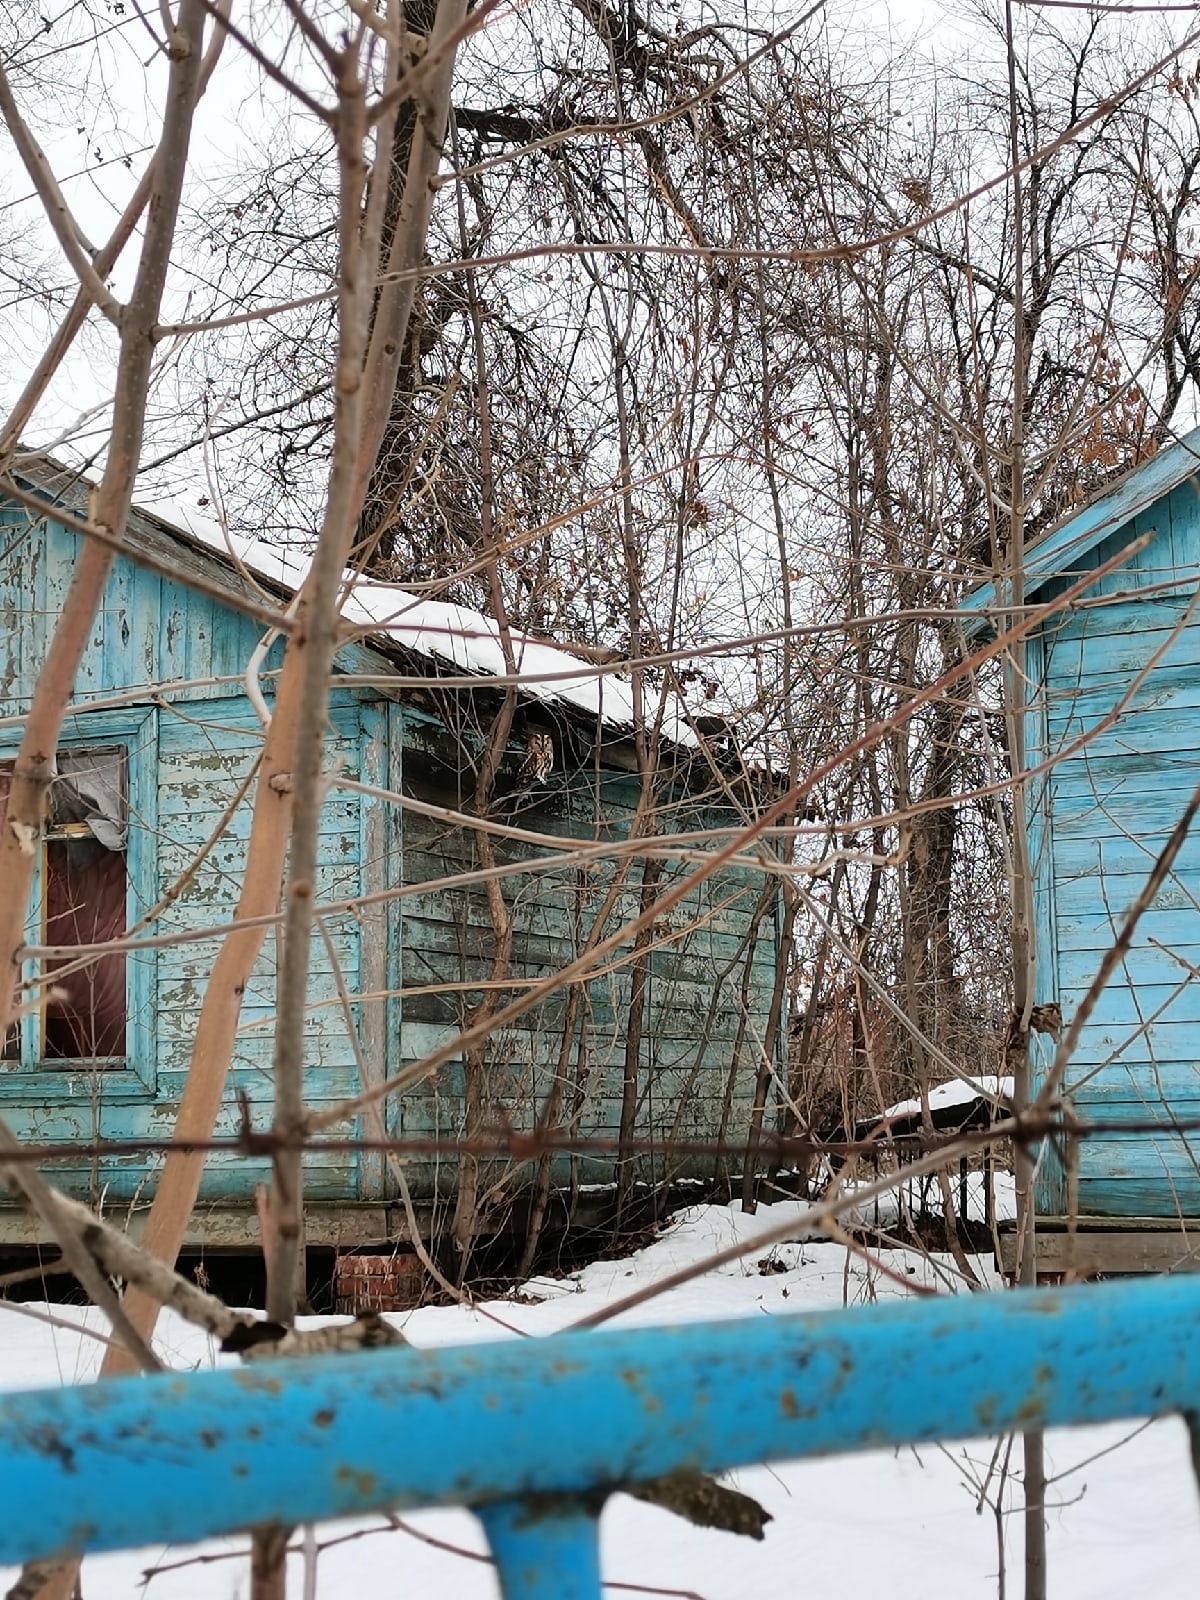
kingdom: Animalia
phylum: Chordata
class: Aves
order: Strigiformes
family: Strigidae
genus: Strix
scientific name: Strix aluco
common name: Tawny owl
